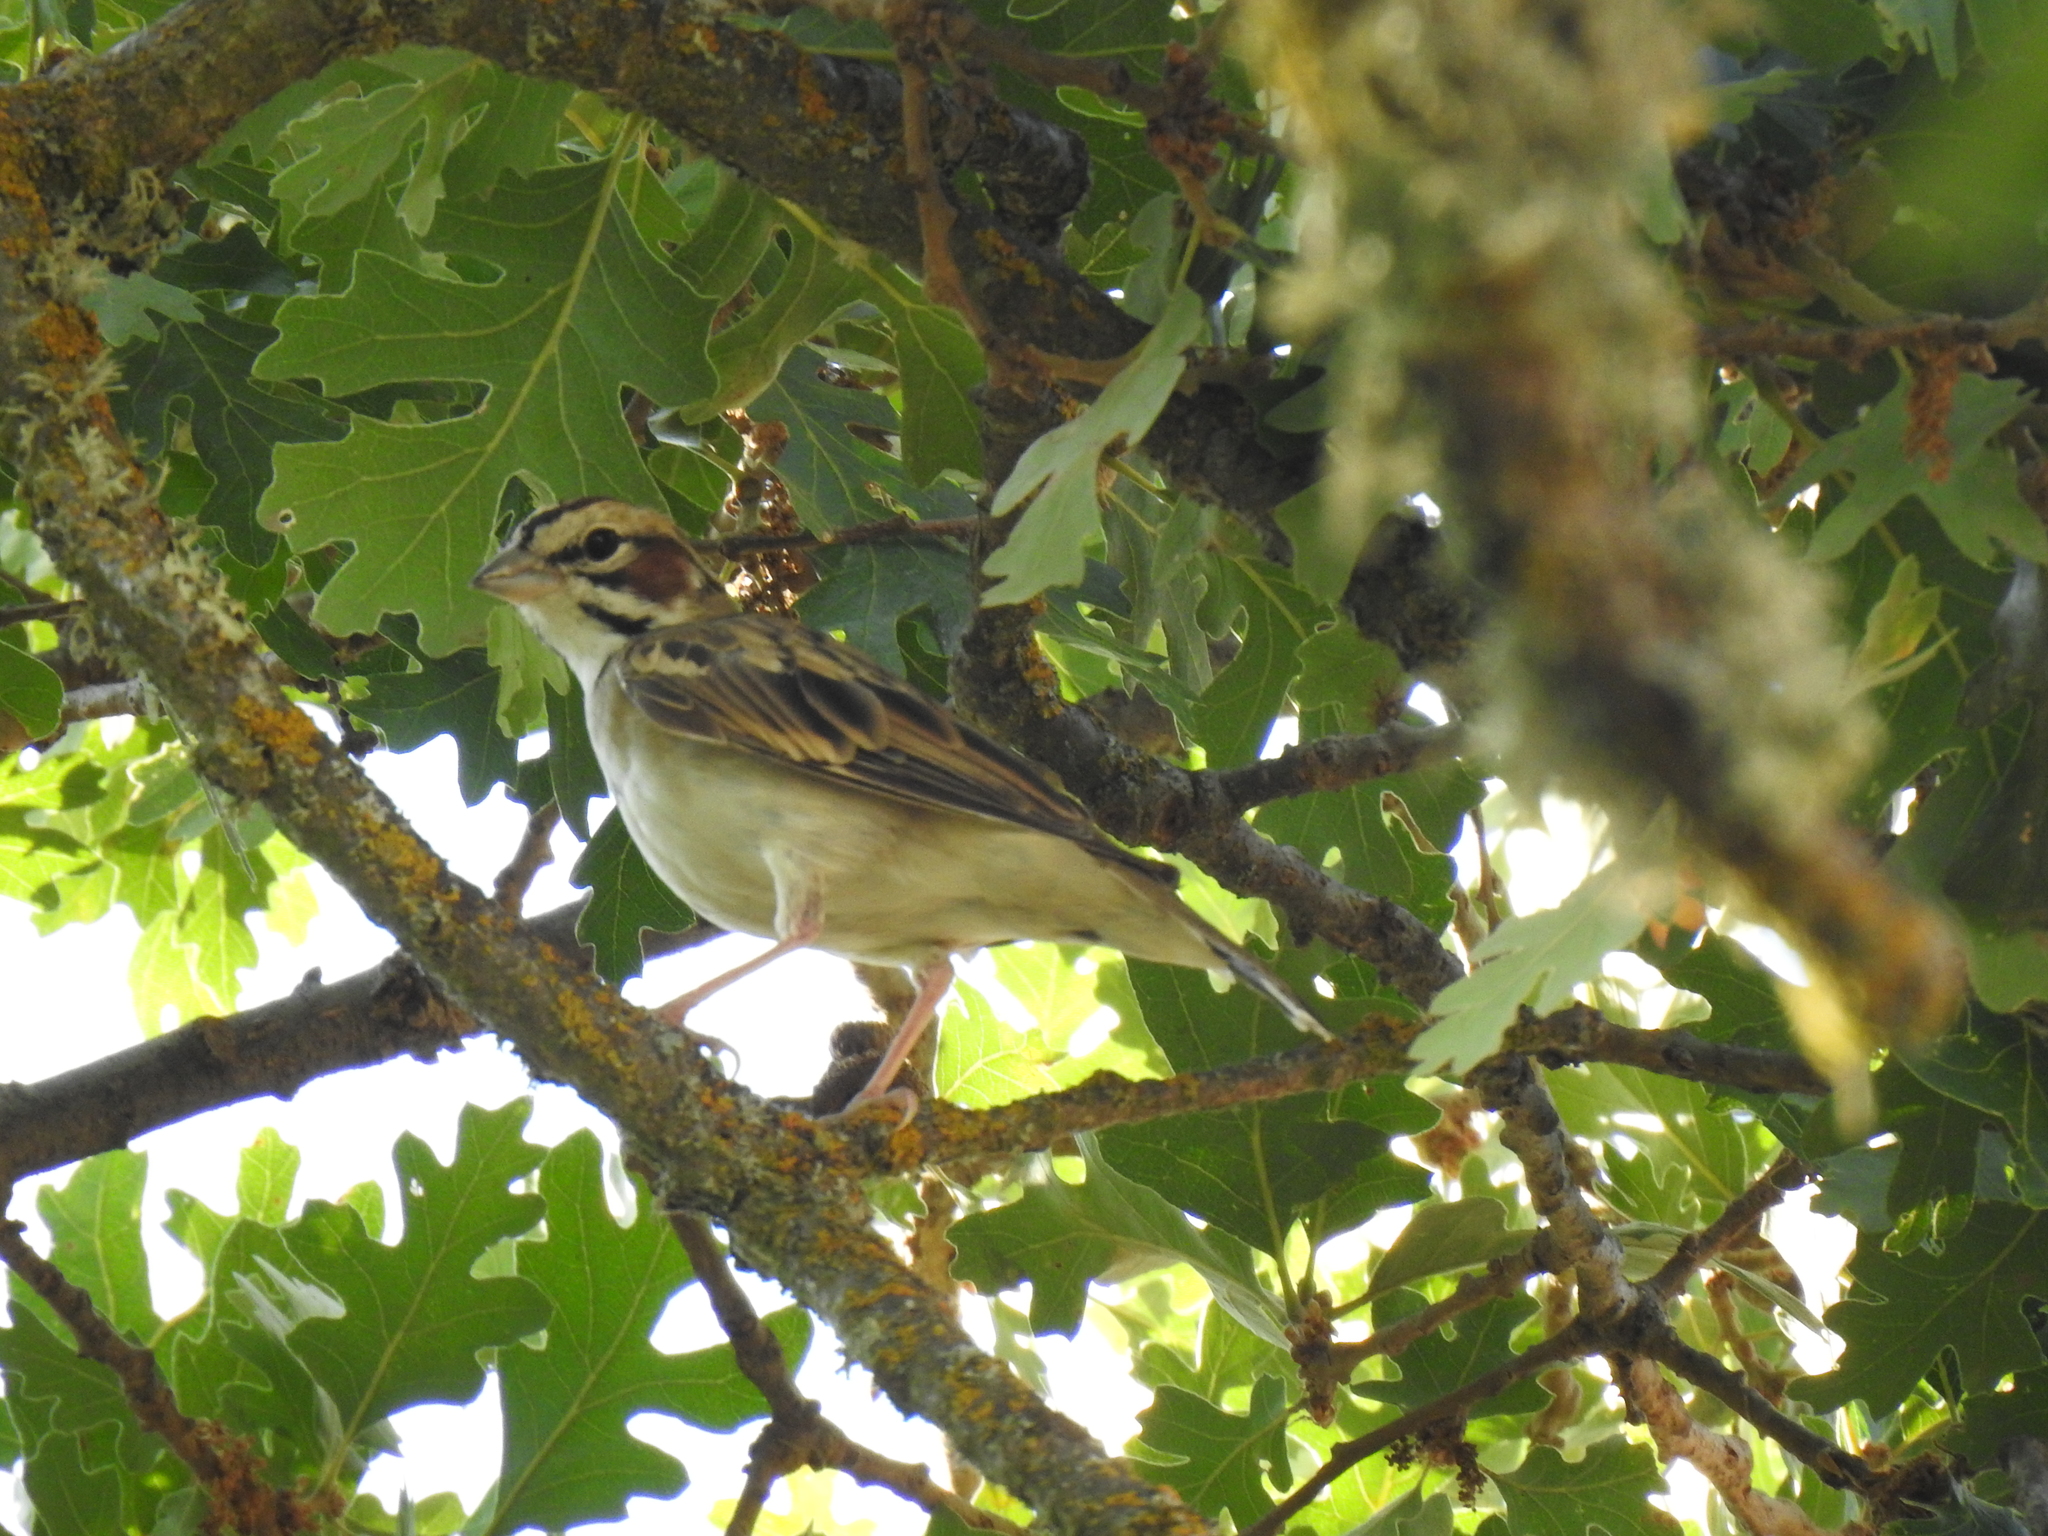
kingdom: Animalia
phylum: Chordata
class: Aves
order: Passeriformes
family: Passerellidae
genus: Chondestes
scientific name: Chondestes grammacus
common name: Lark sparrow
